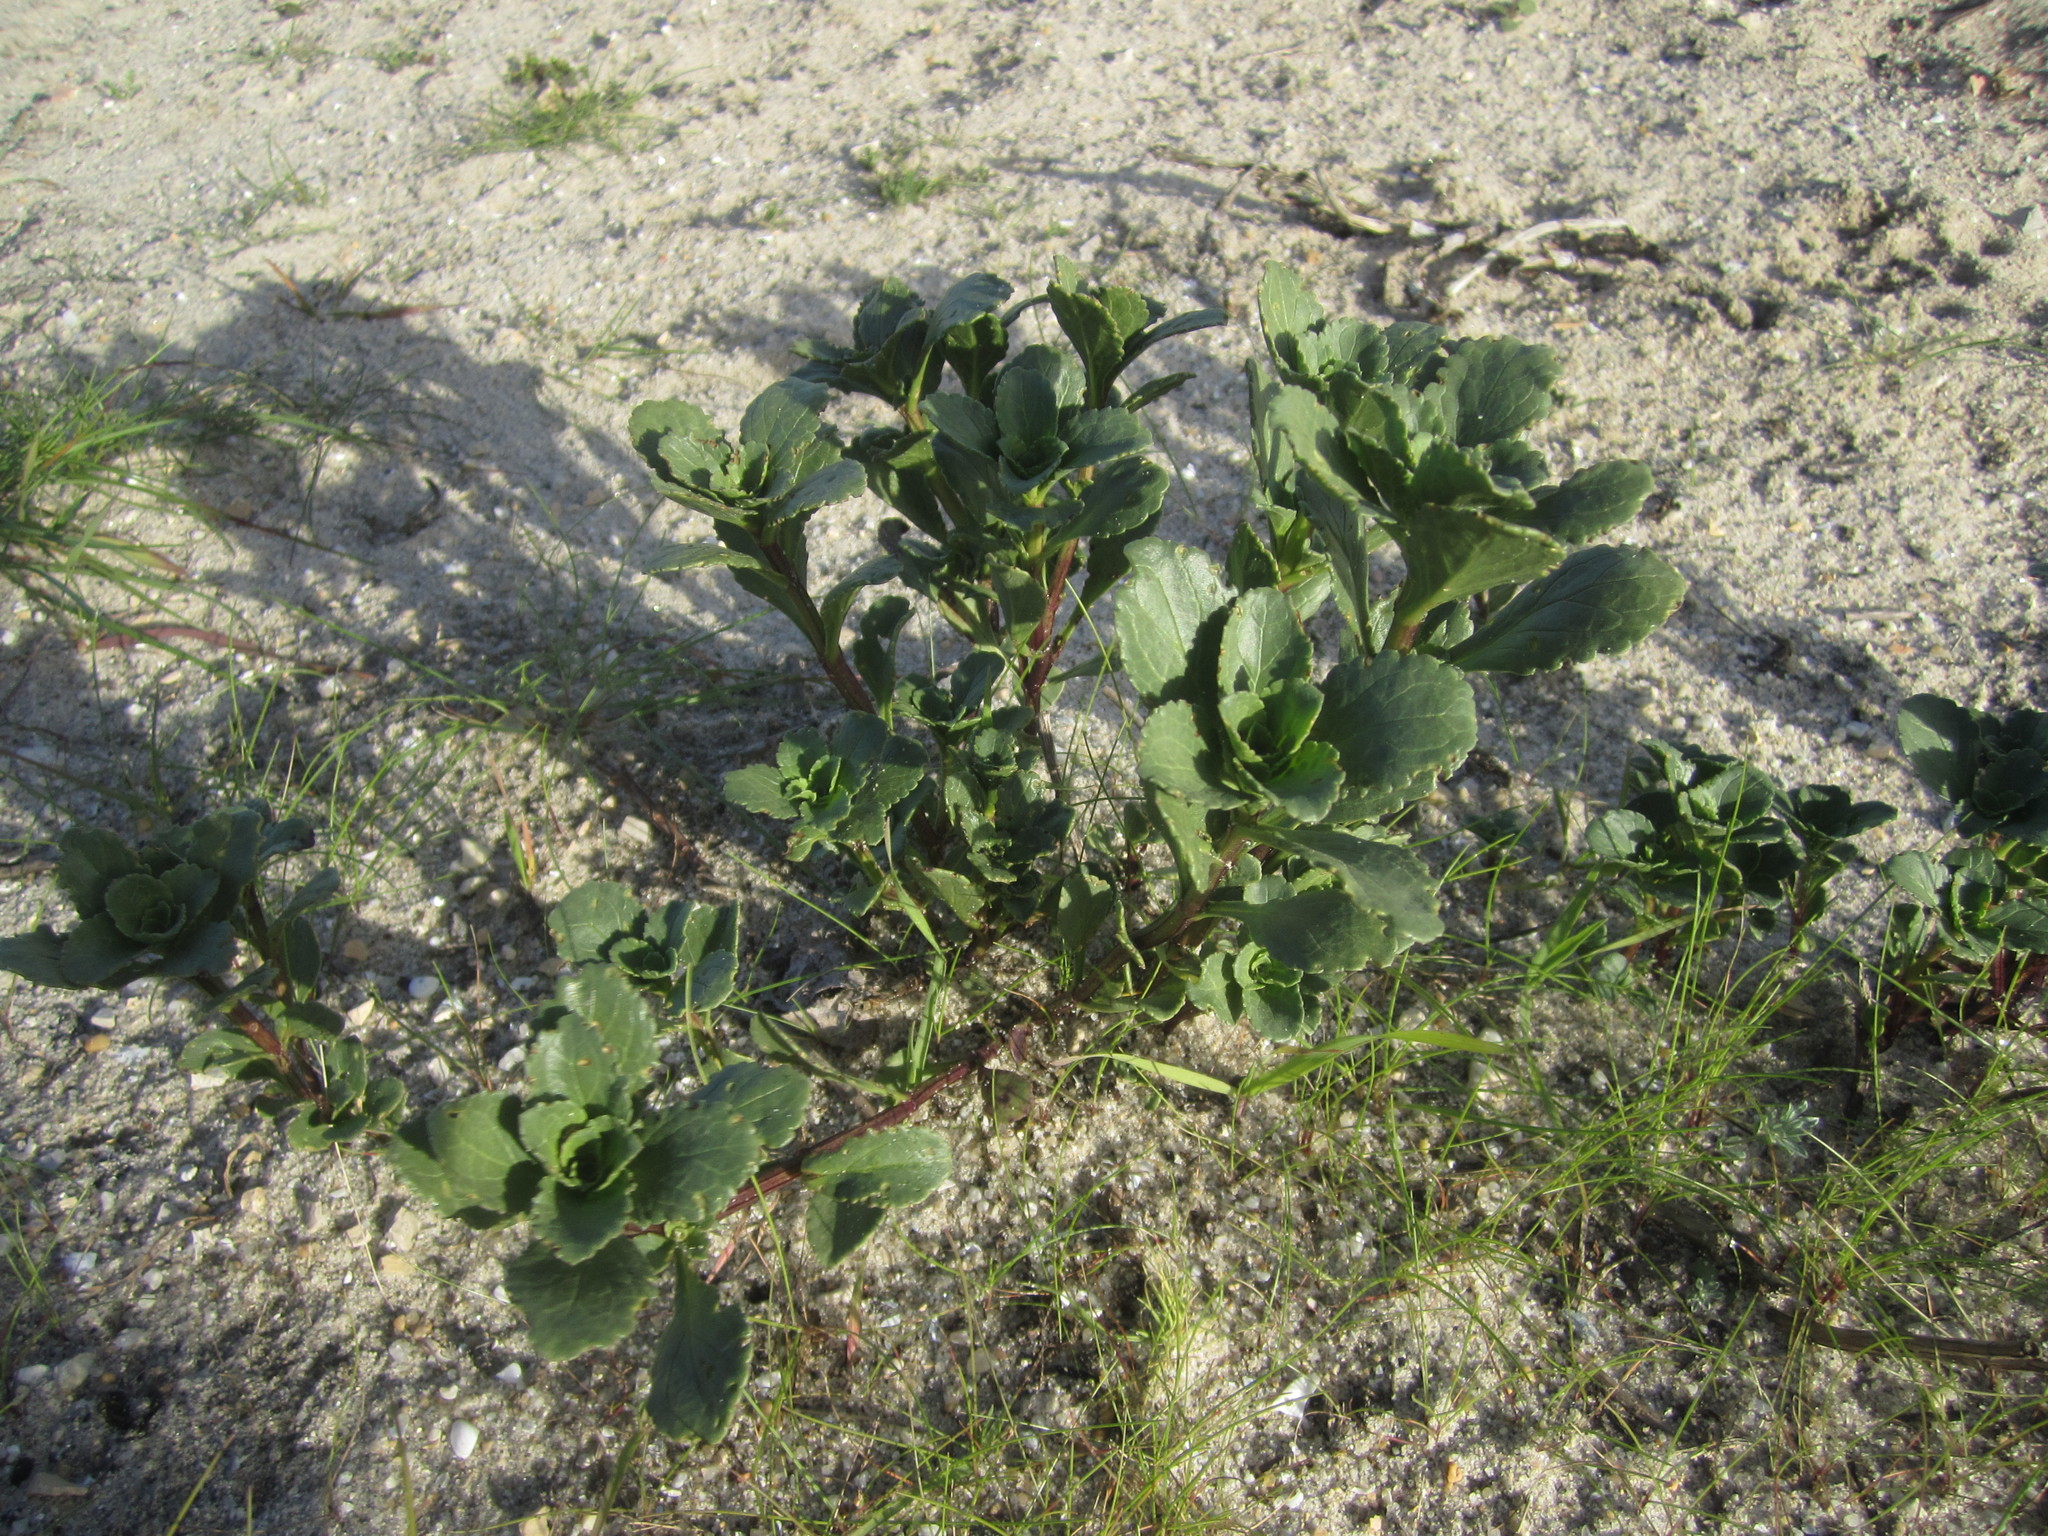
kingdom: Plantae
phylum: Tracheophyta
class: Magnoliopsida
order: Lamiales
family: Scrophulariaceae
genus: Scrophularia
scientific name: Scrophularia frutescens
